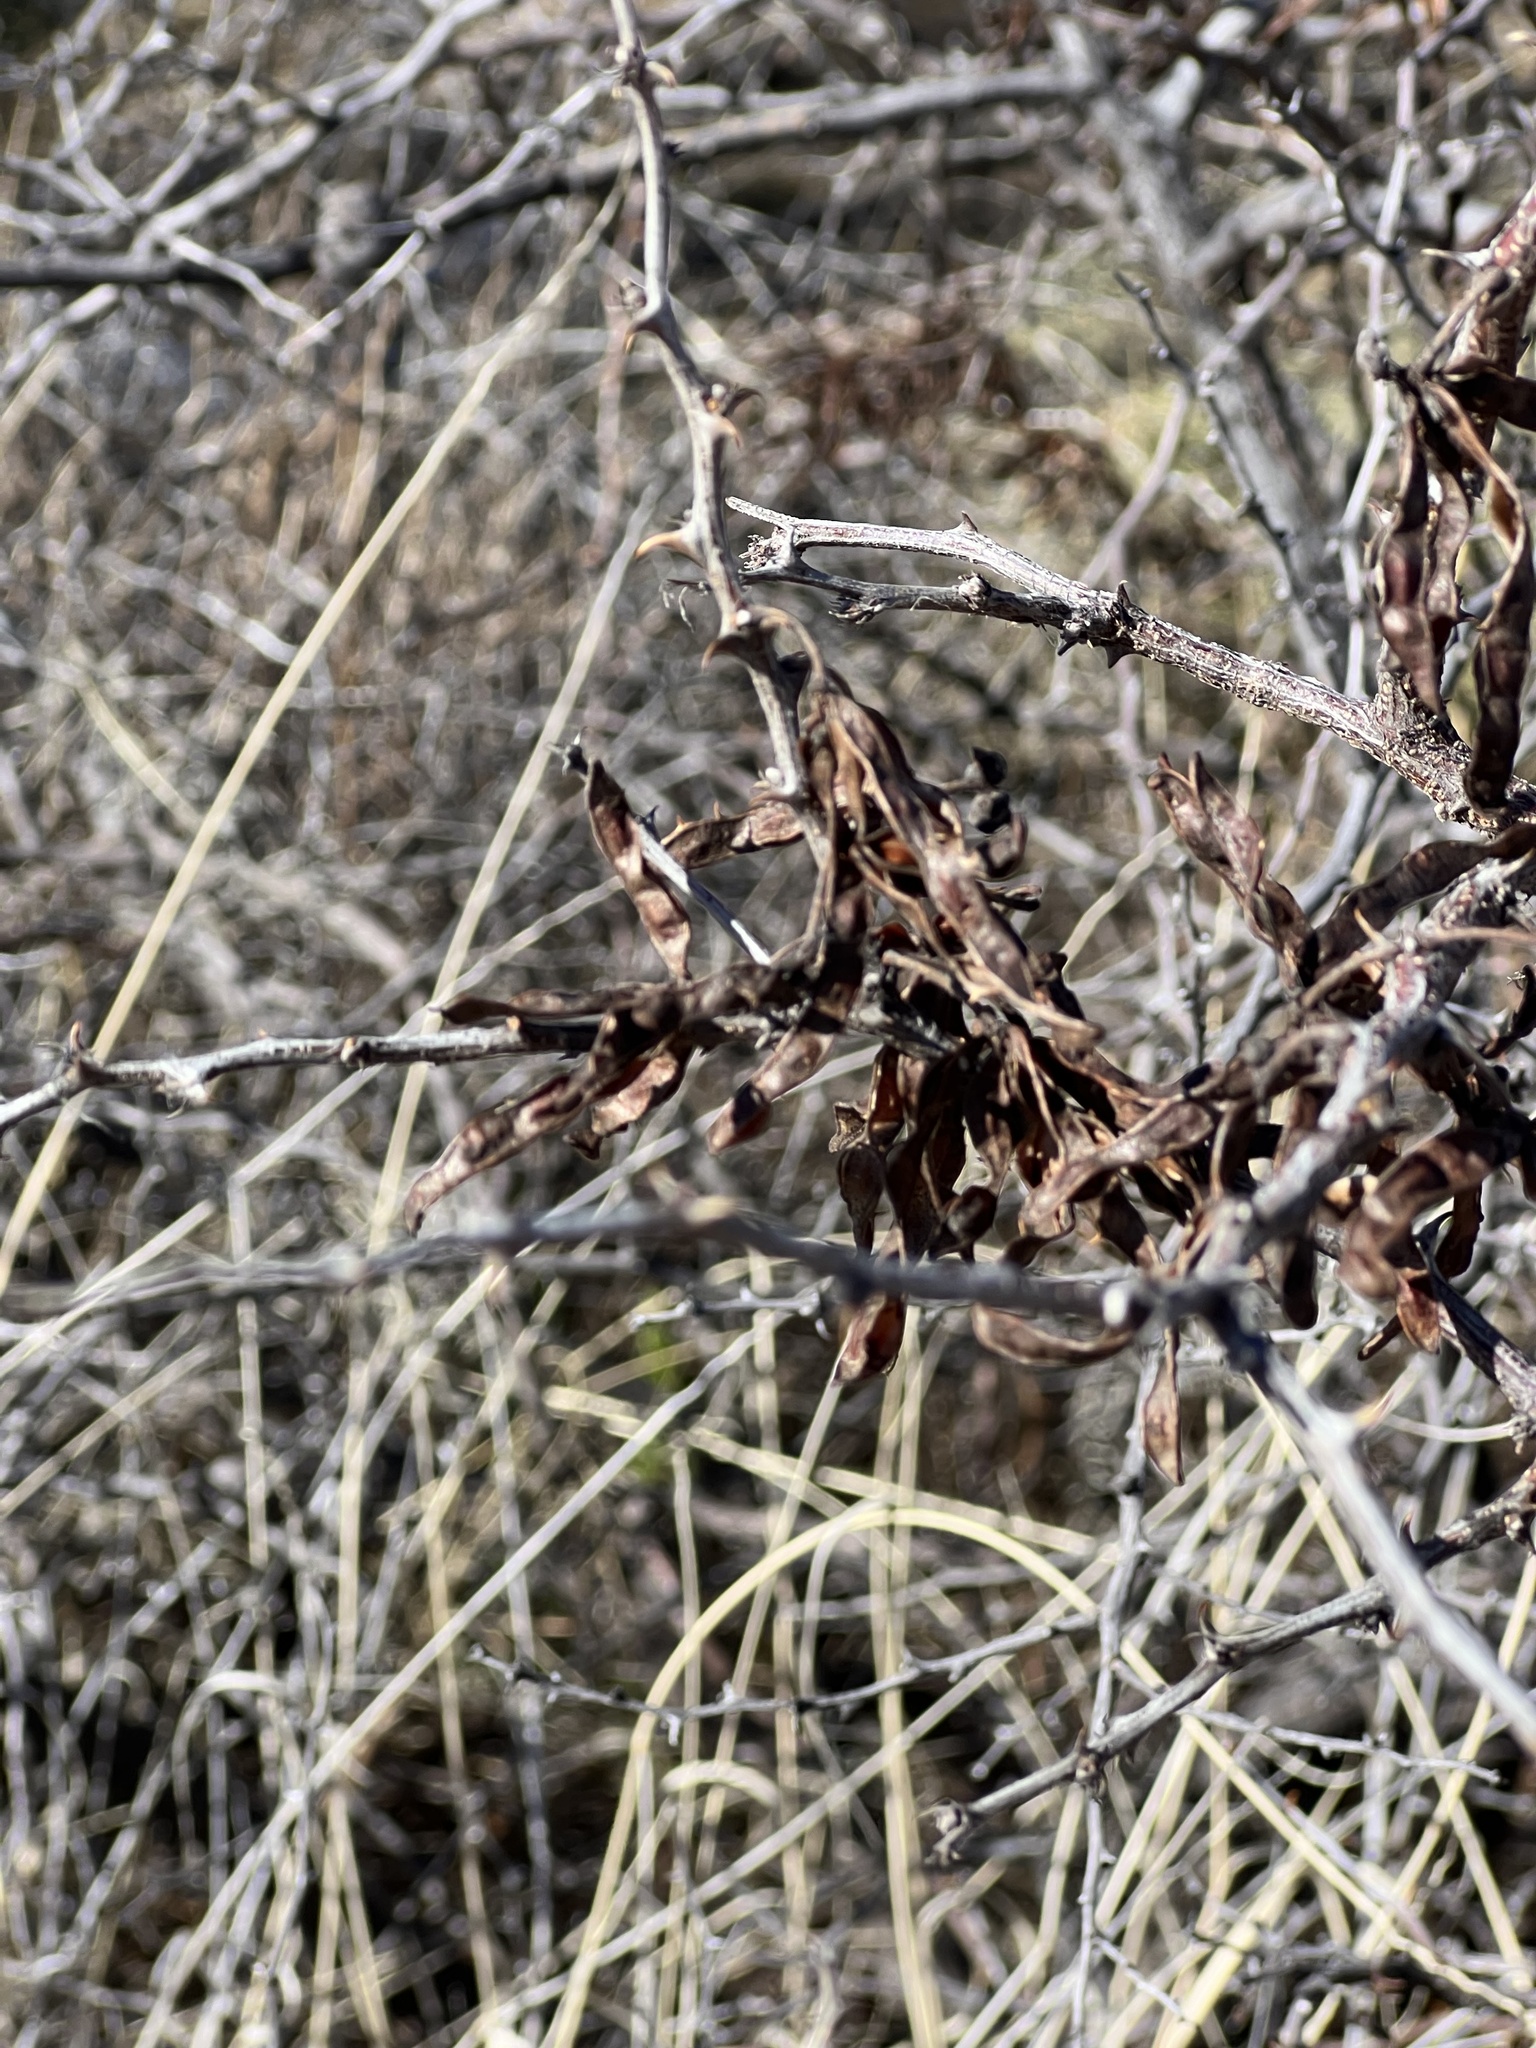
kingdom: Plantae
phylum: Tracheophyta
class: Magnoliopsida
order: Fabales
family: Fabaceae
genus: Mimosa
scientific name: Mimosa biuncifera
